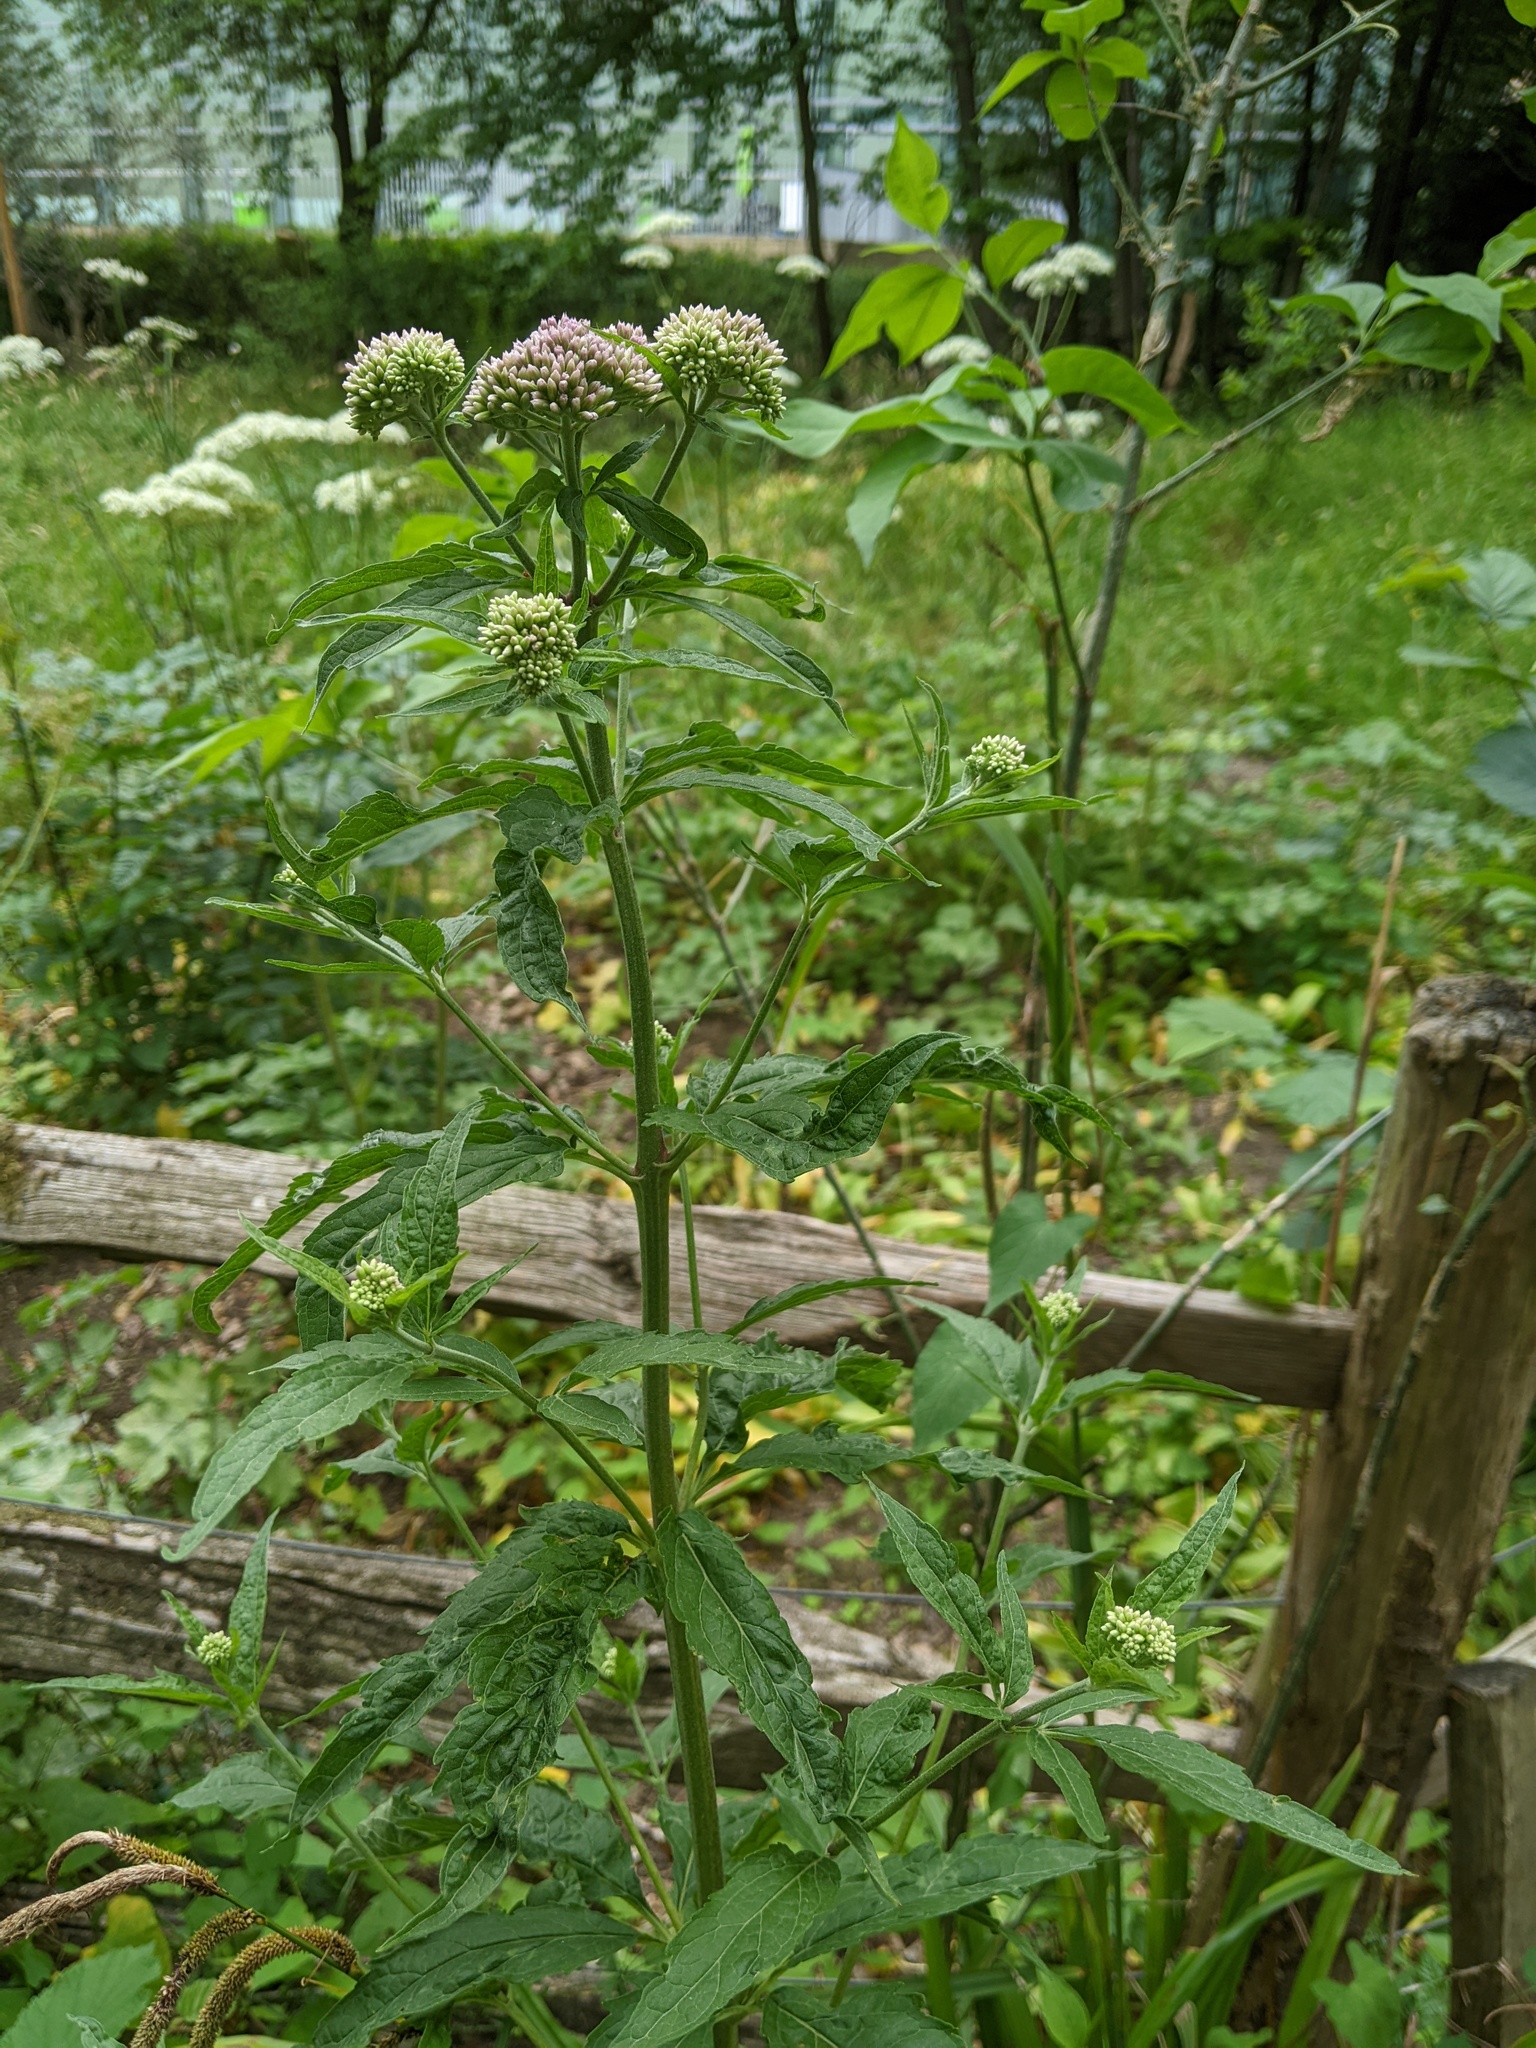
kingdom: Plantae
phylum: Tracheophyta
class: Magnoliopsida
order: Asterales
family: Asteraceae
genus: Eupatorium
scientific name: Eupatorium cannabinum
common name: Hemp-agrimony
